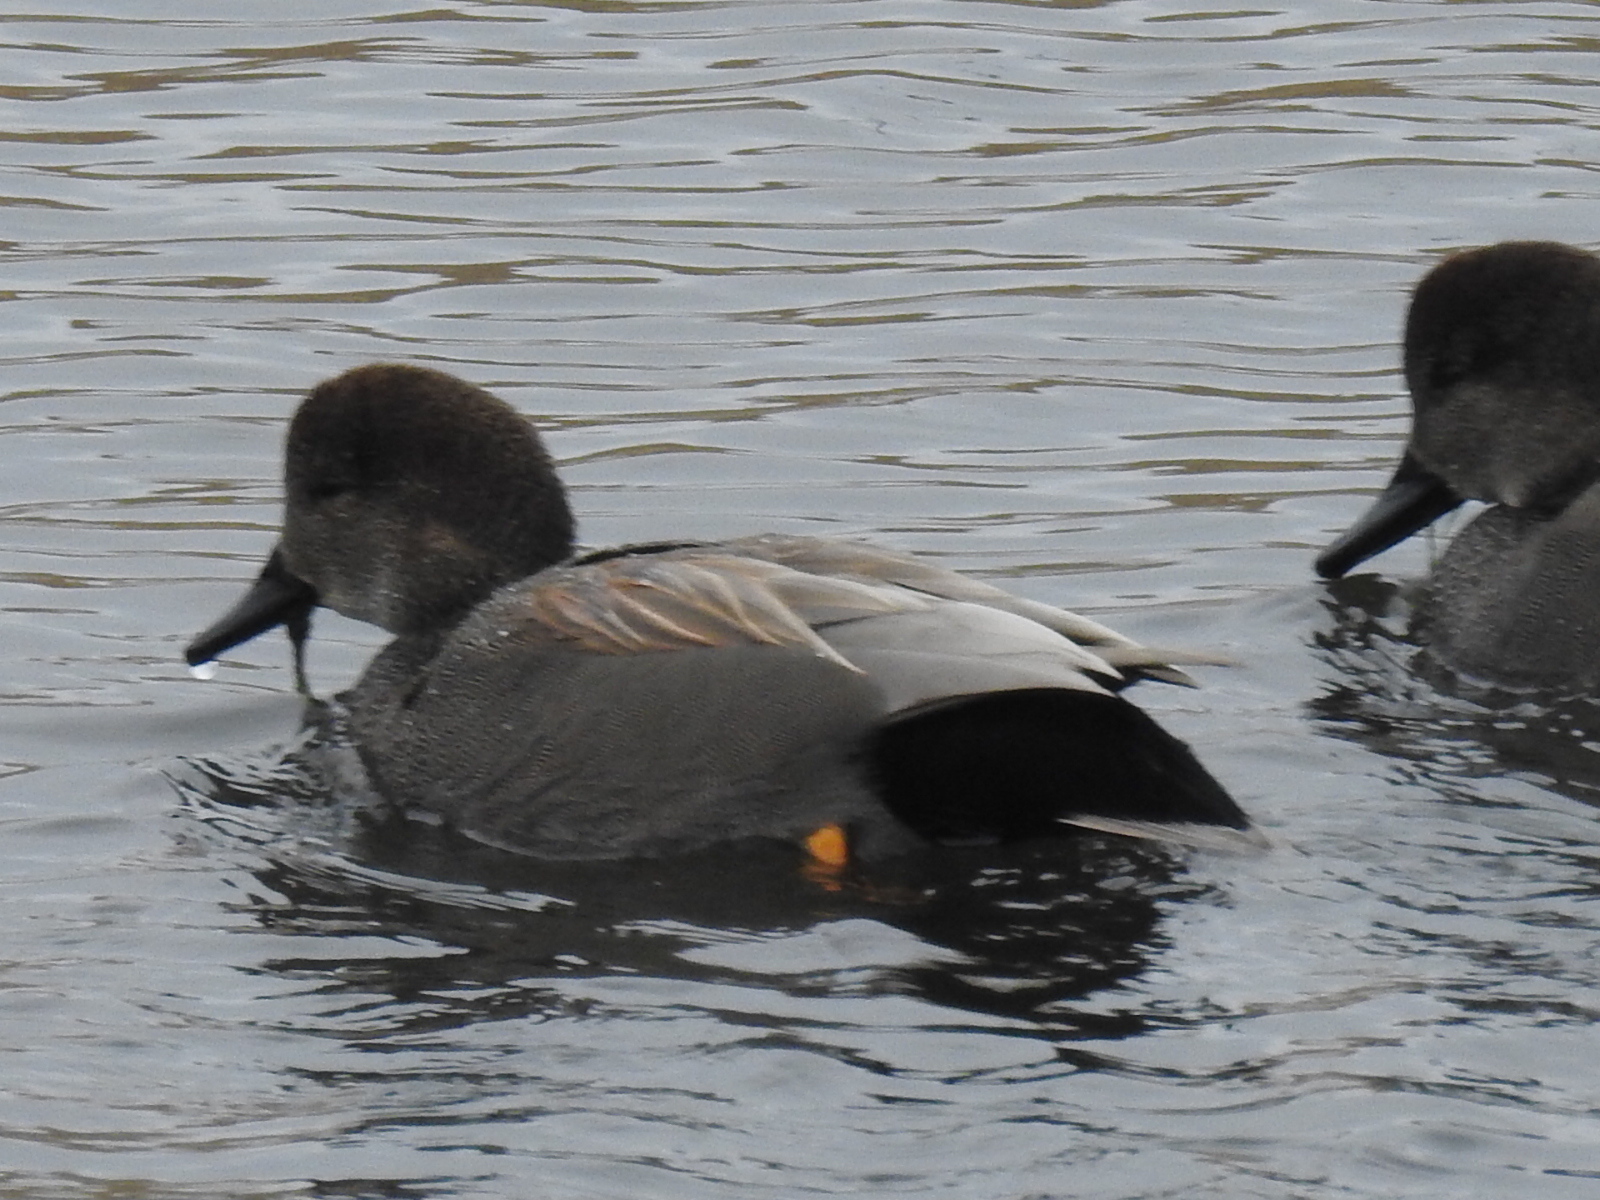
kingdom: Animalia
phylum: Chordata
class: Aves
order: Anseriformes
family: Anatidae
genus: Mareca
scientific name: Mareca strepera
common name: Gadwall
